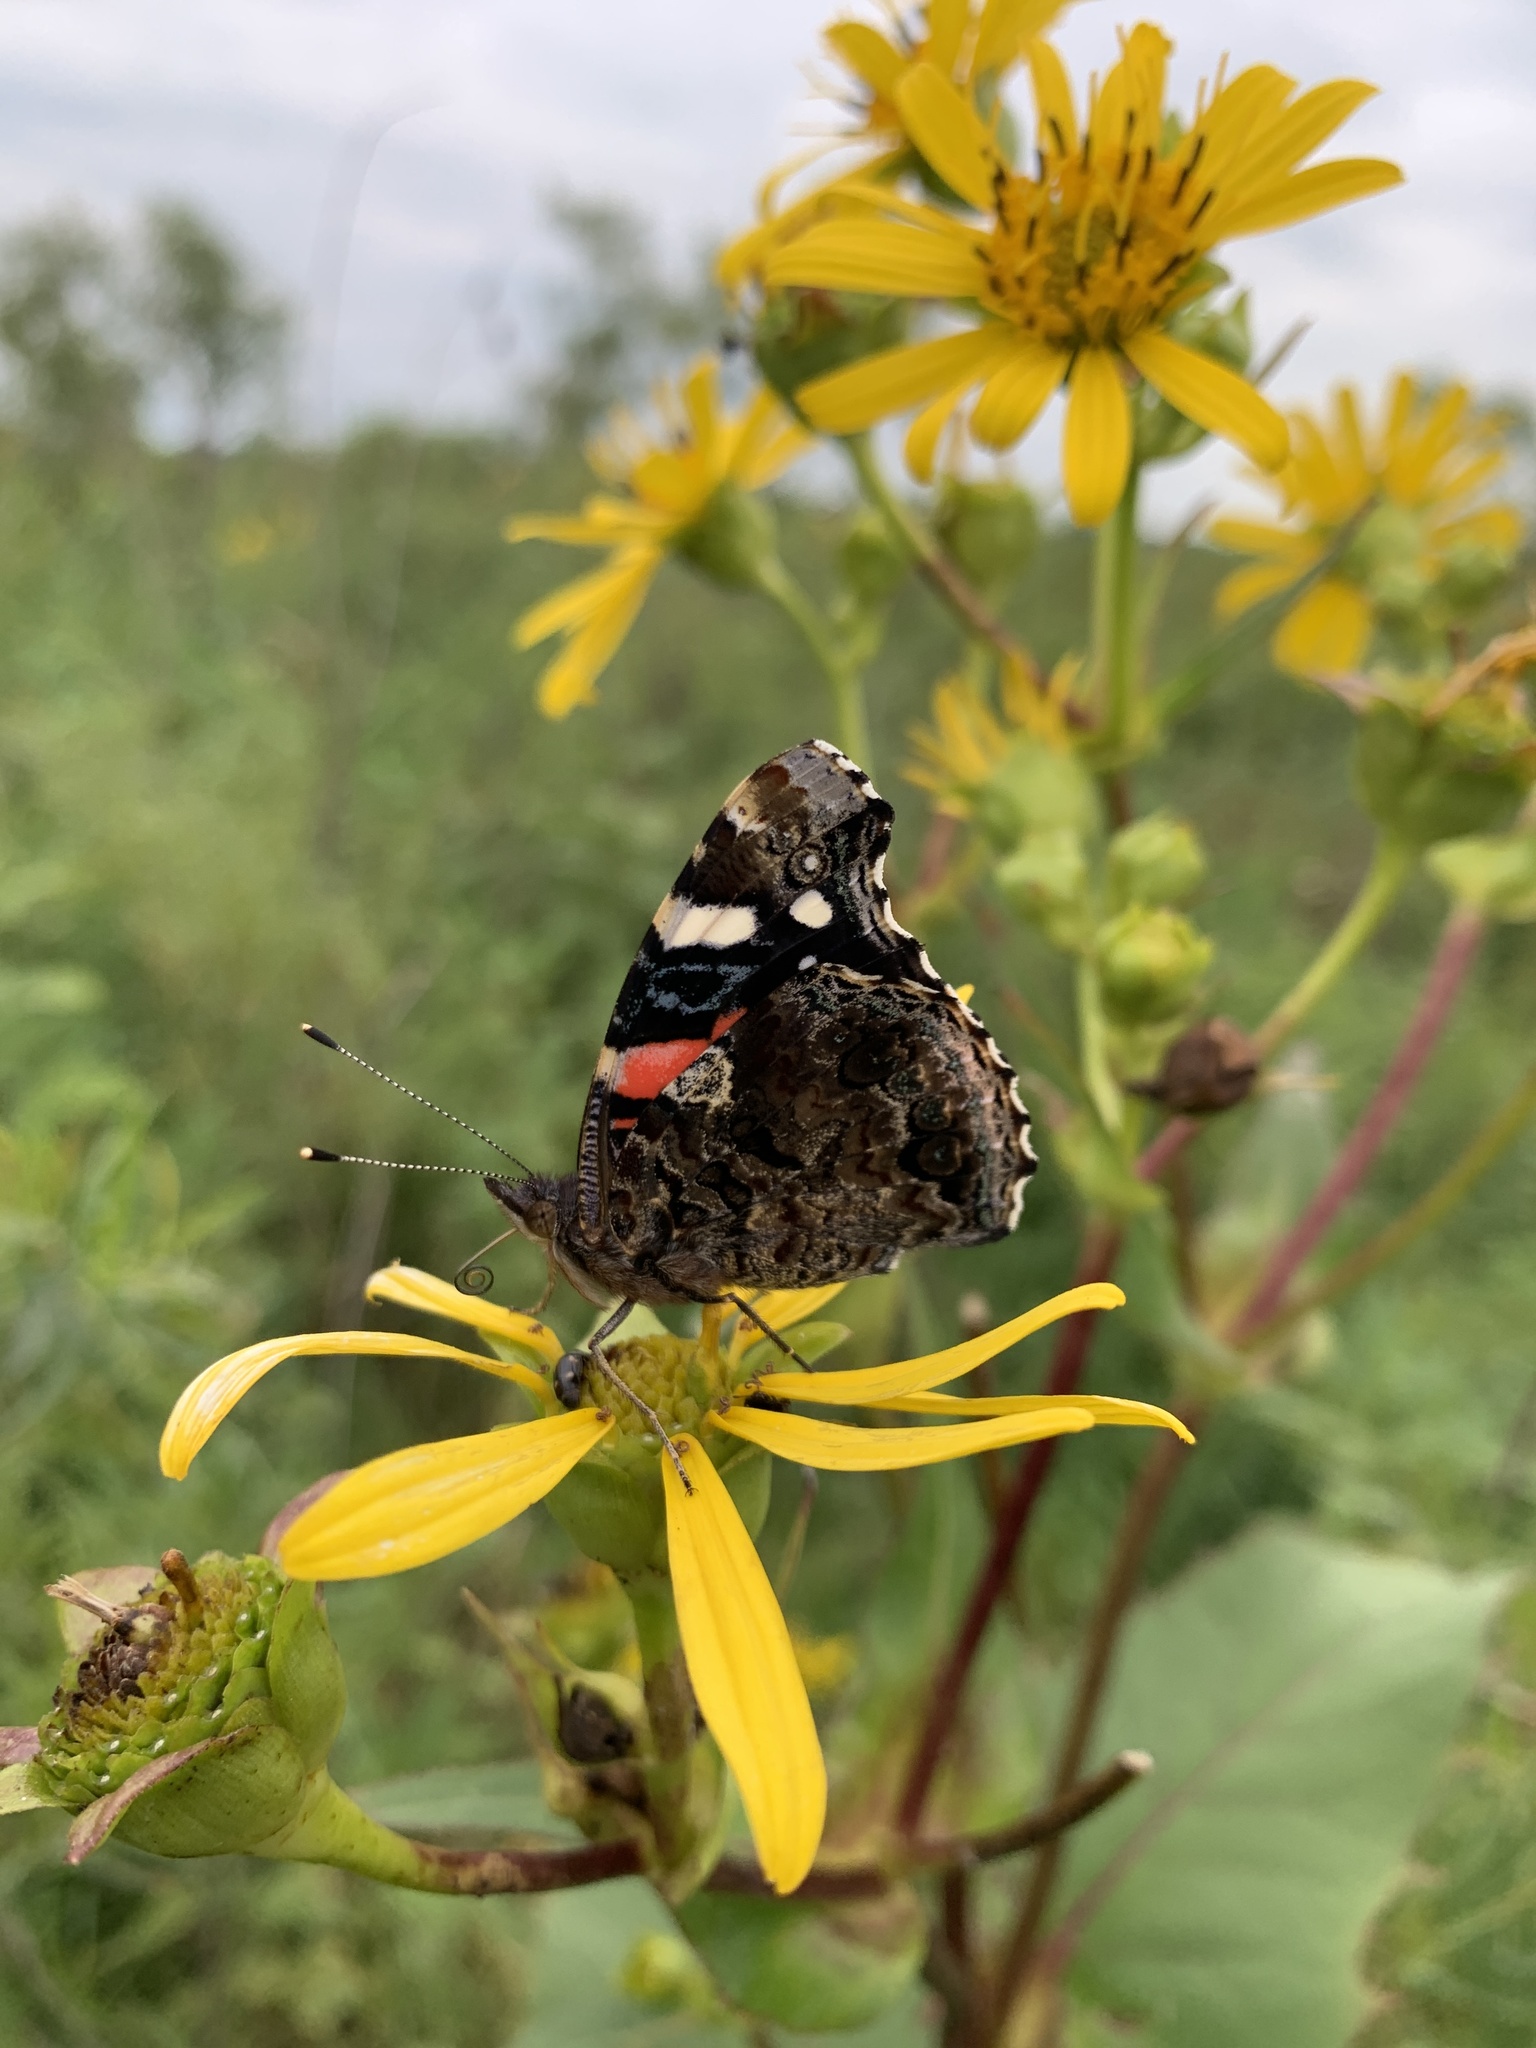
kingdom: Animalia
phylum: Arthropoda
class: Insecta
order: Lepidoptera
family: Nymphalidae
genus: Vanessa
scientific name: Vanessa atalanta
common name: Red admiral
